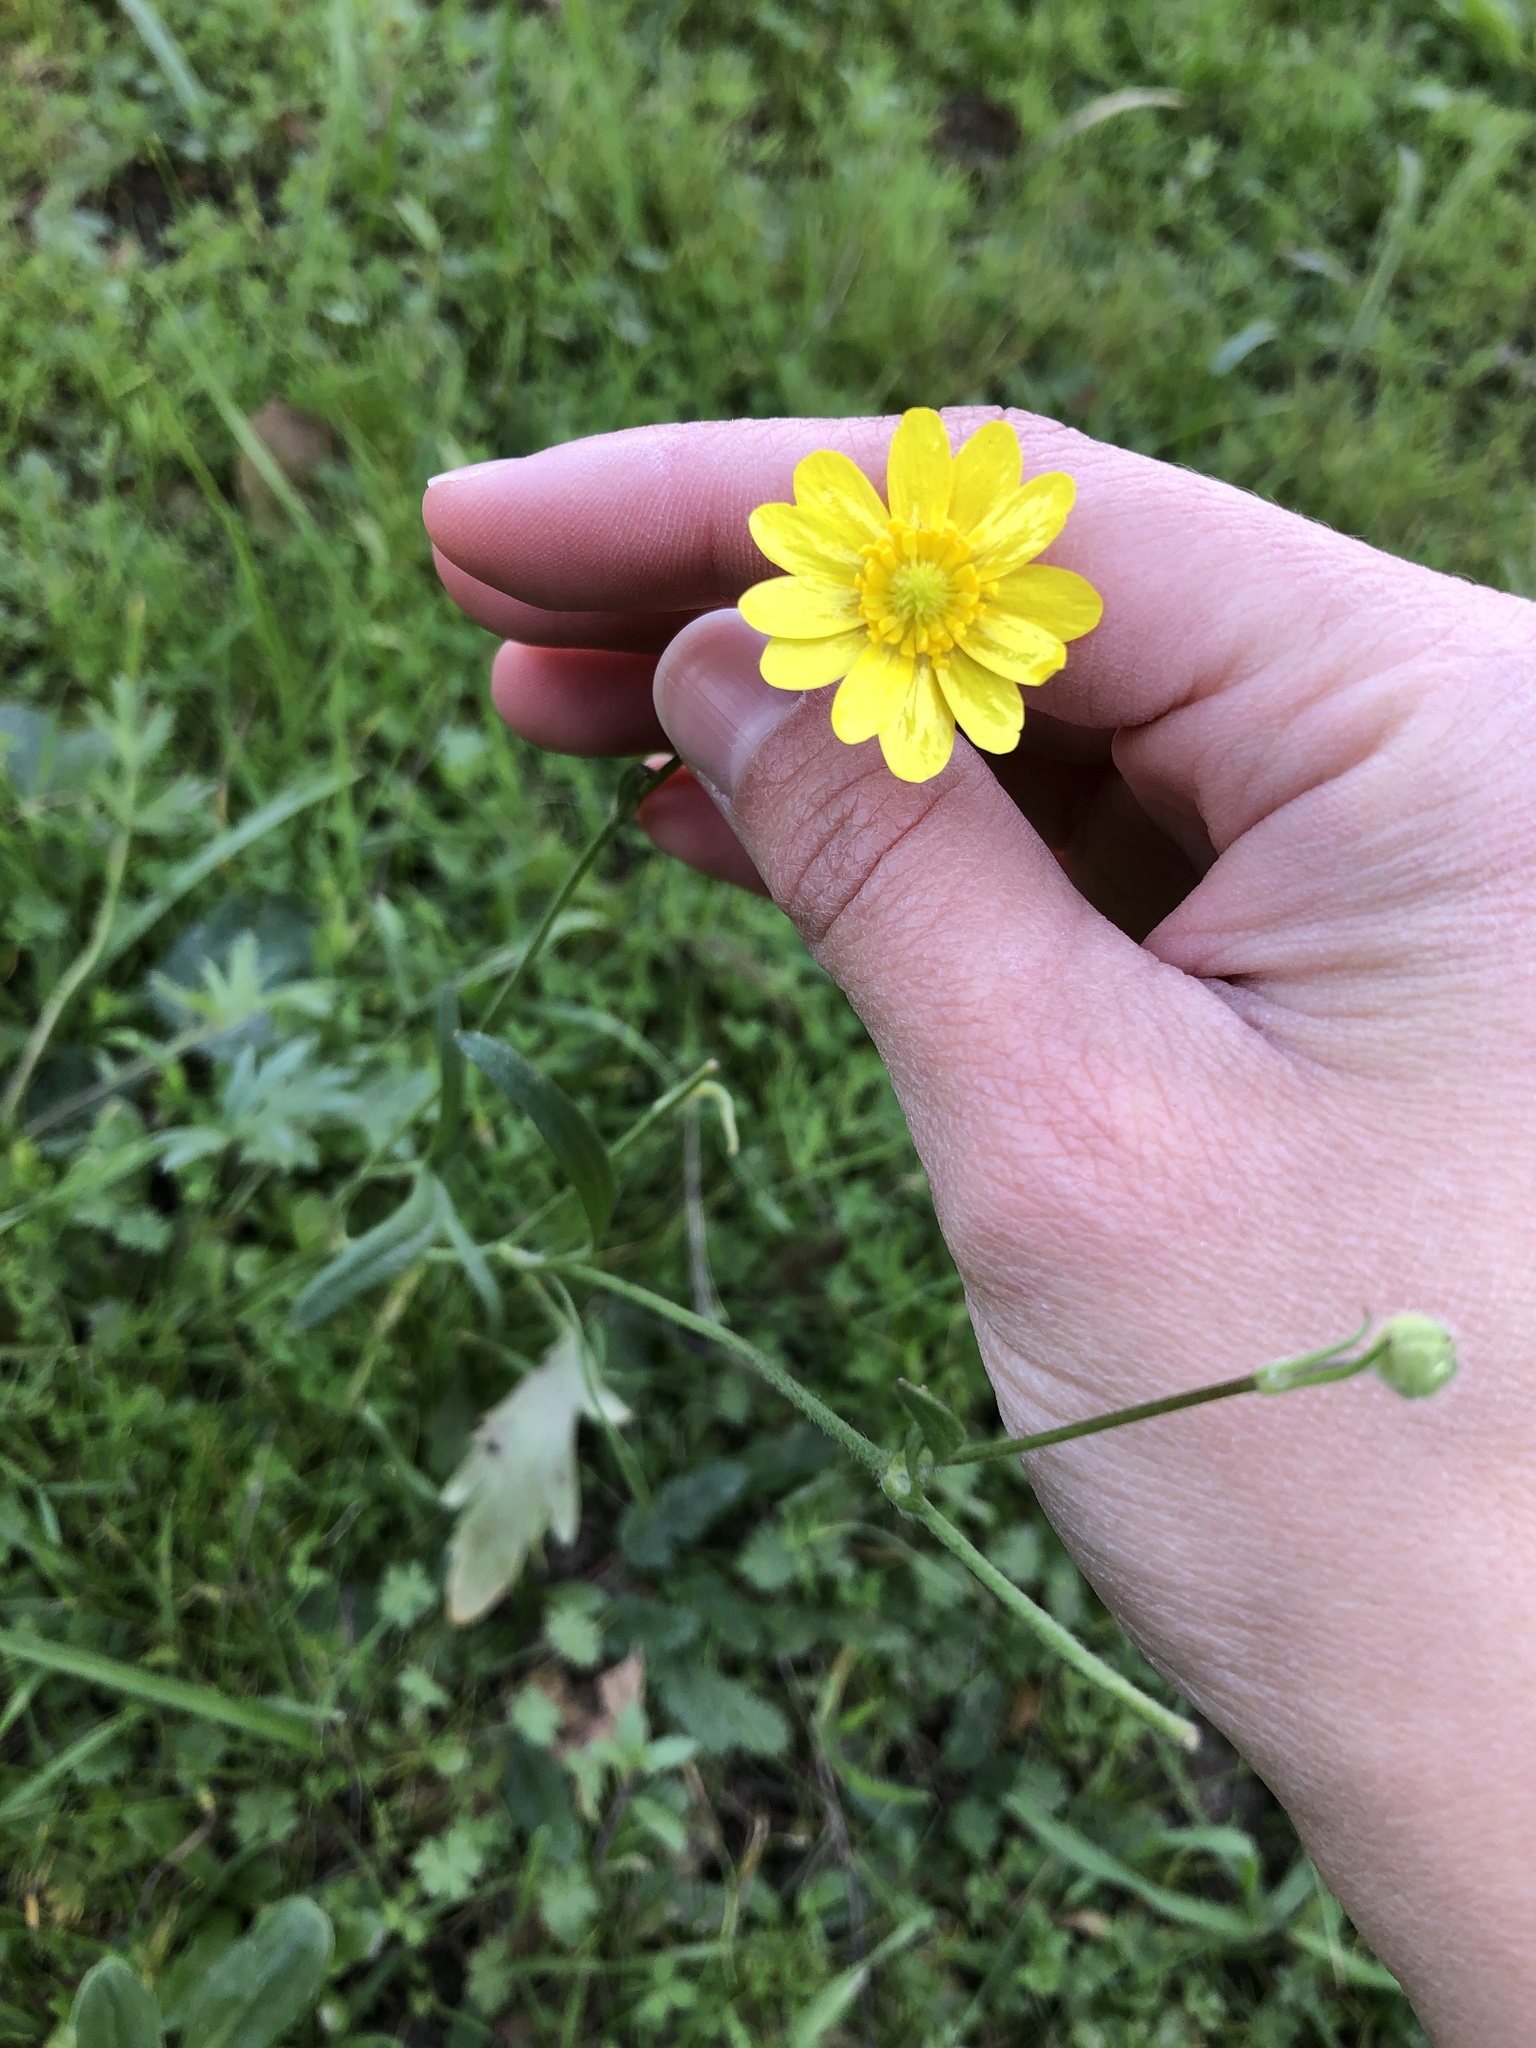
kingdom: Plantae
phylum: Tracheophyta
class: Magnoliopsida
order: Ranunculales
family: Ranunculaceae
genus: Ranunculus
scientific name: Ranunculus californicus
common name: California buttercup
